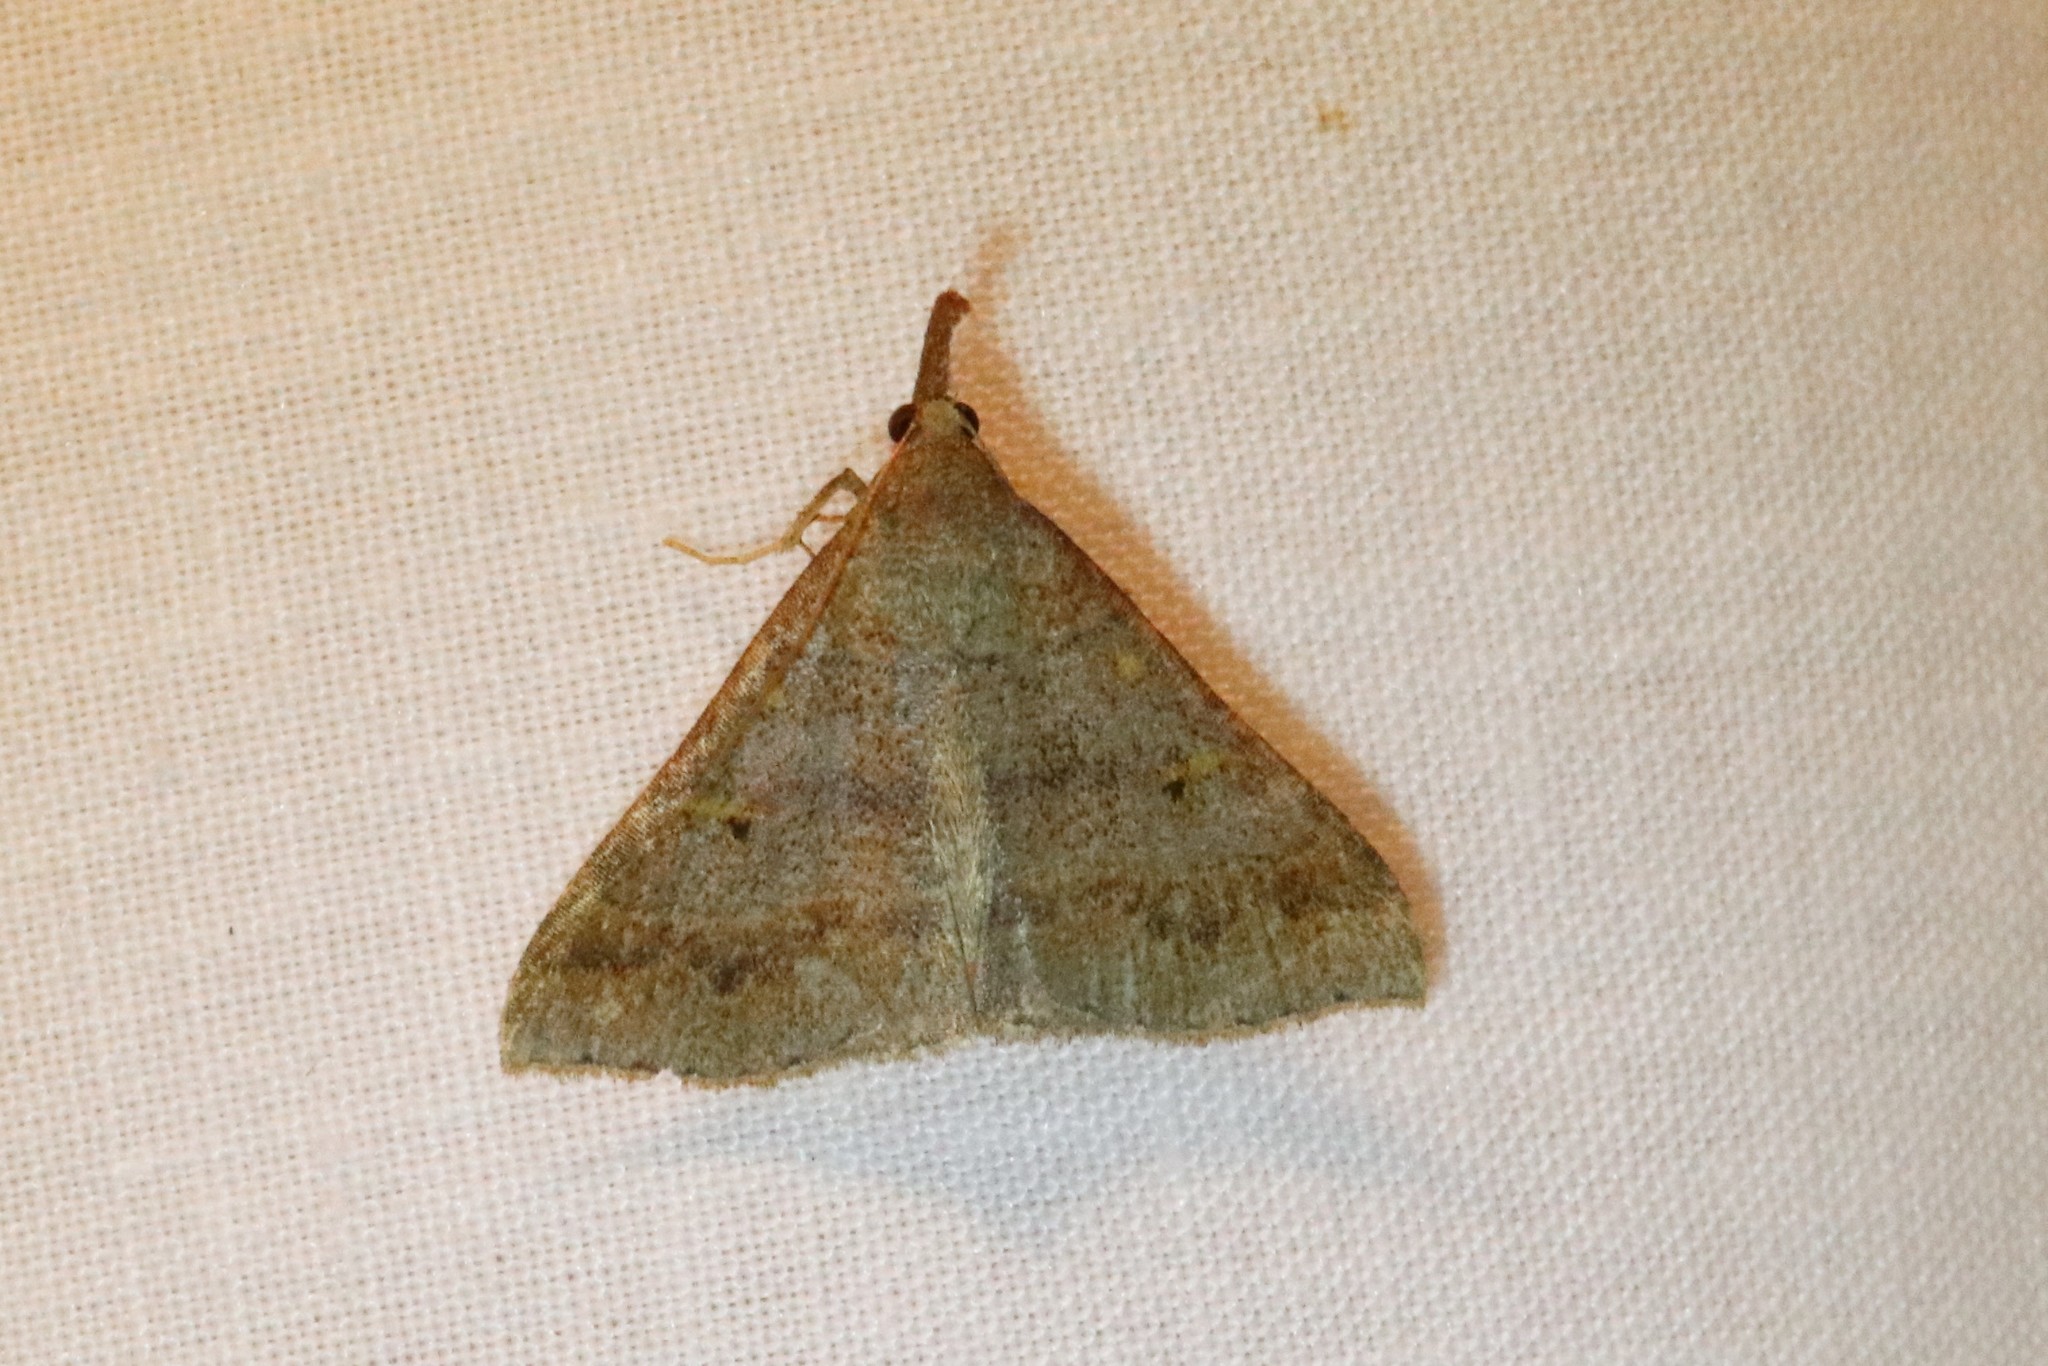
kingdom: Animalia
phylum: Arthropoda
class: Insecta
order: Lepidoptera
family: Erebidae
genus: Renia
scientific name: Renia flavipunctalis
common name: Yellow-spotted renia moth
